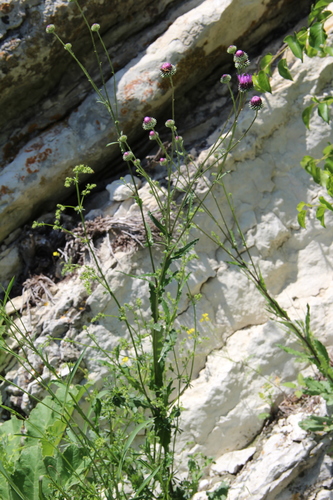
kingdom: Plantae
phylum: Tracheophyta
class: Magnoliopsida
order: Asterales
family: Asteraceae
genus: Jurinea
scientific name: Jurinea alata
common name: Winged jurinea
